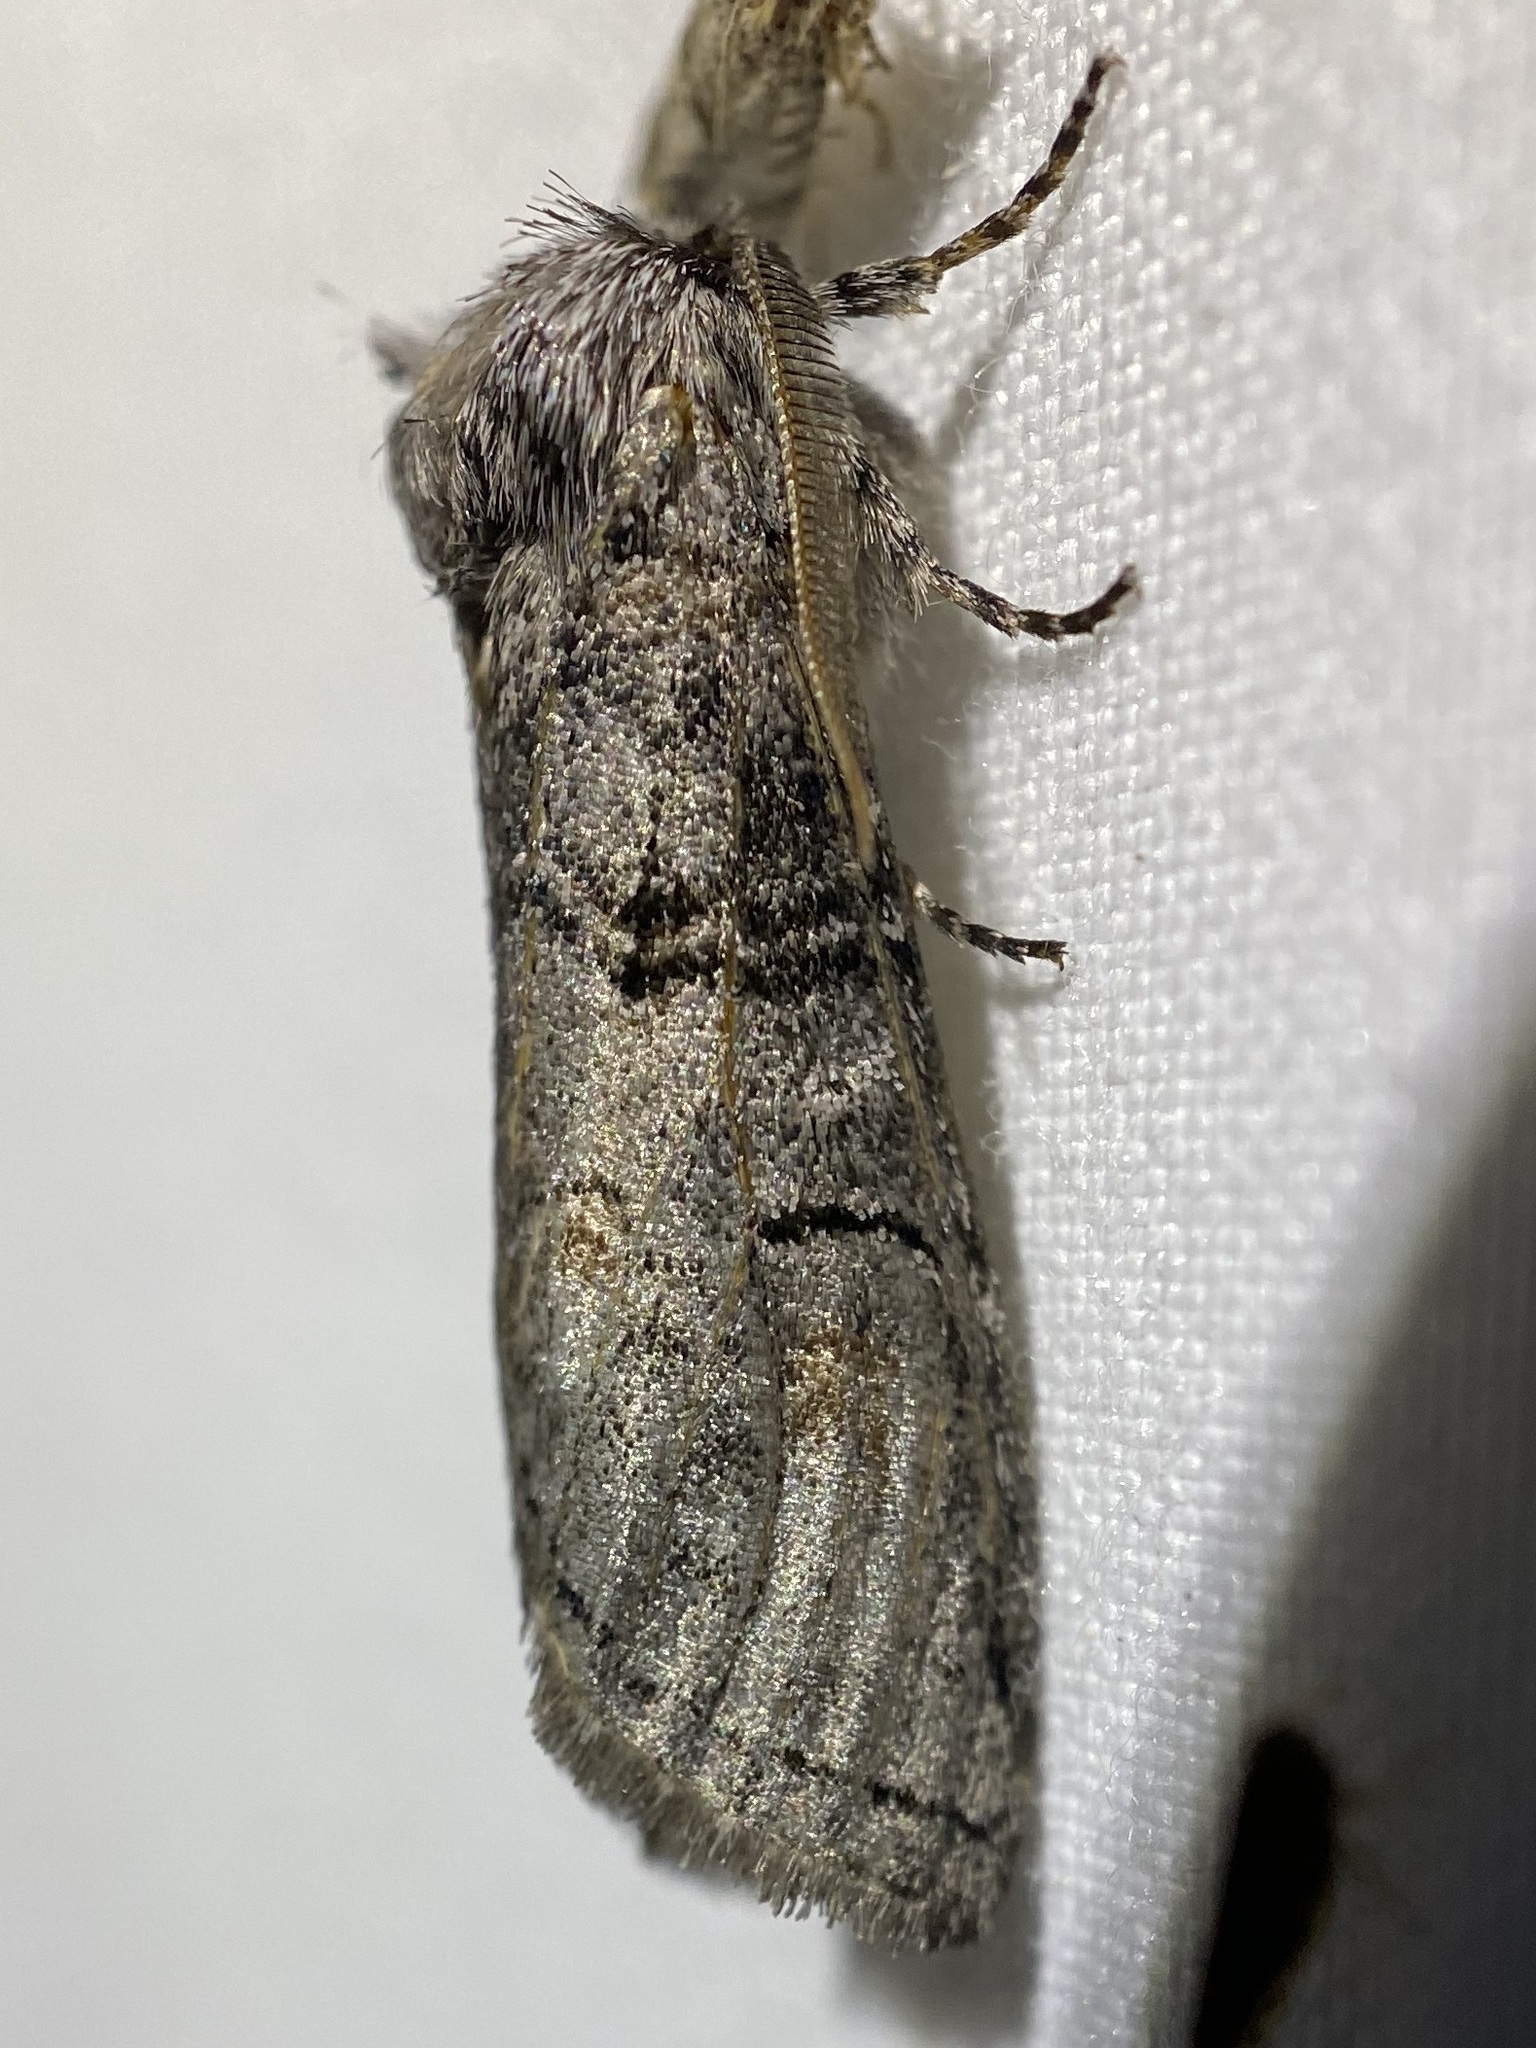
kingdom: Animalia
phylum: Arthropoda
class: Insecta
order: Lepidoptera
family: Notodontidae
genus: Afilia
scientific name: Afilia oslari
